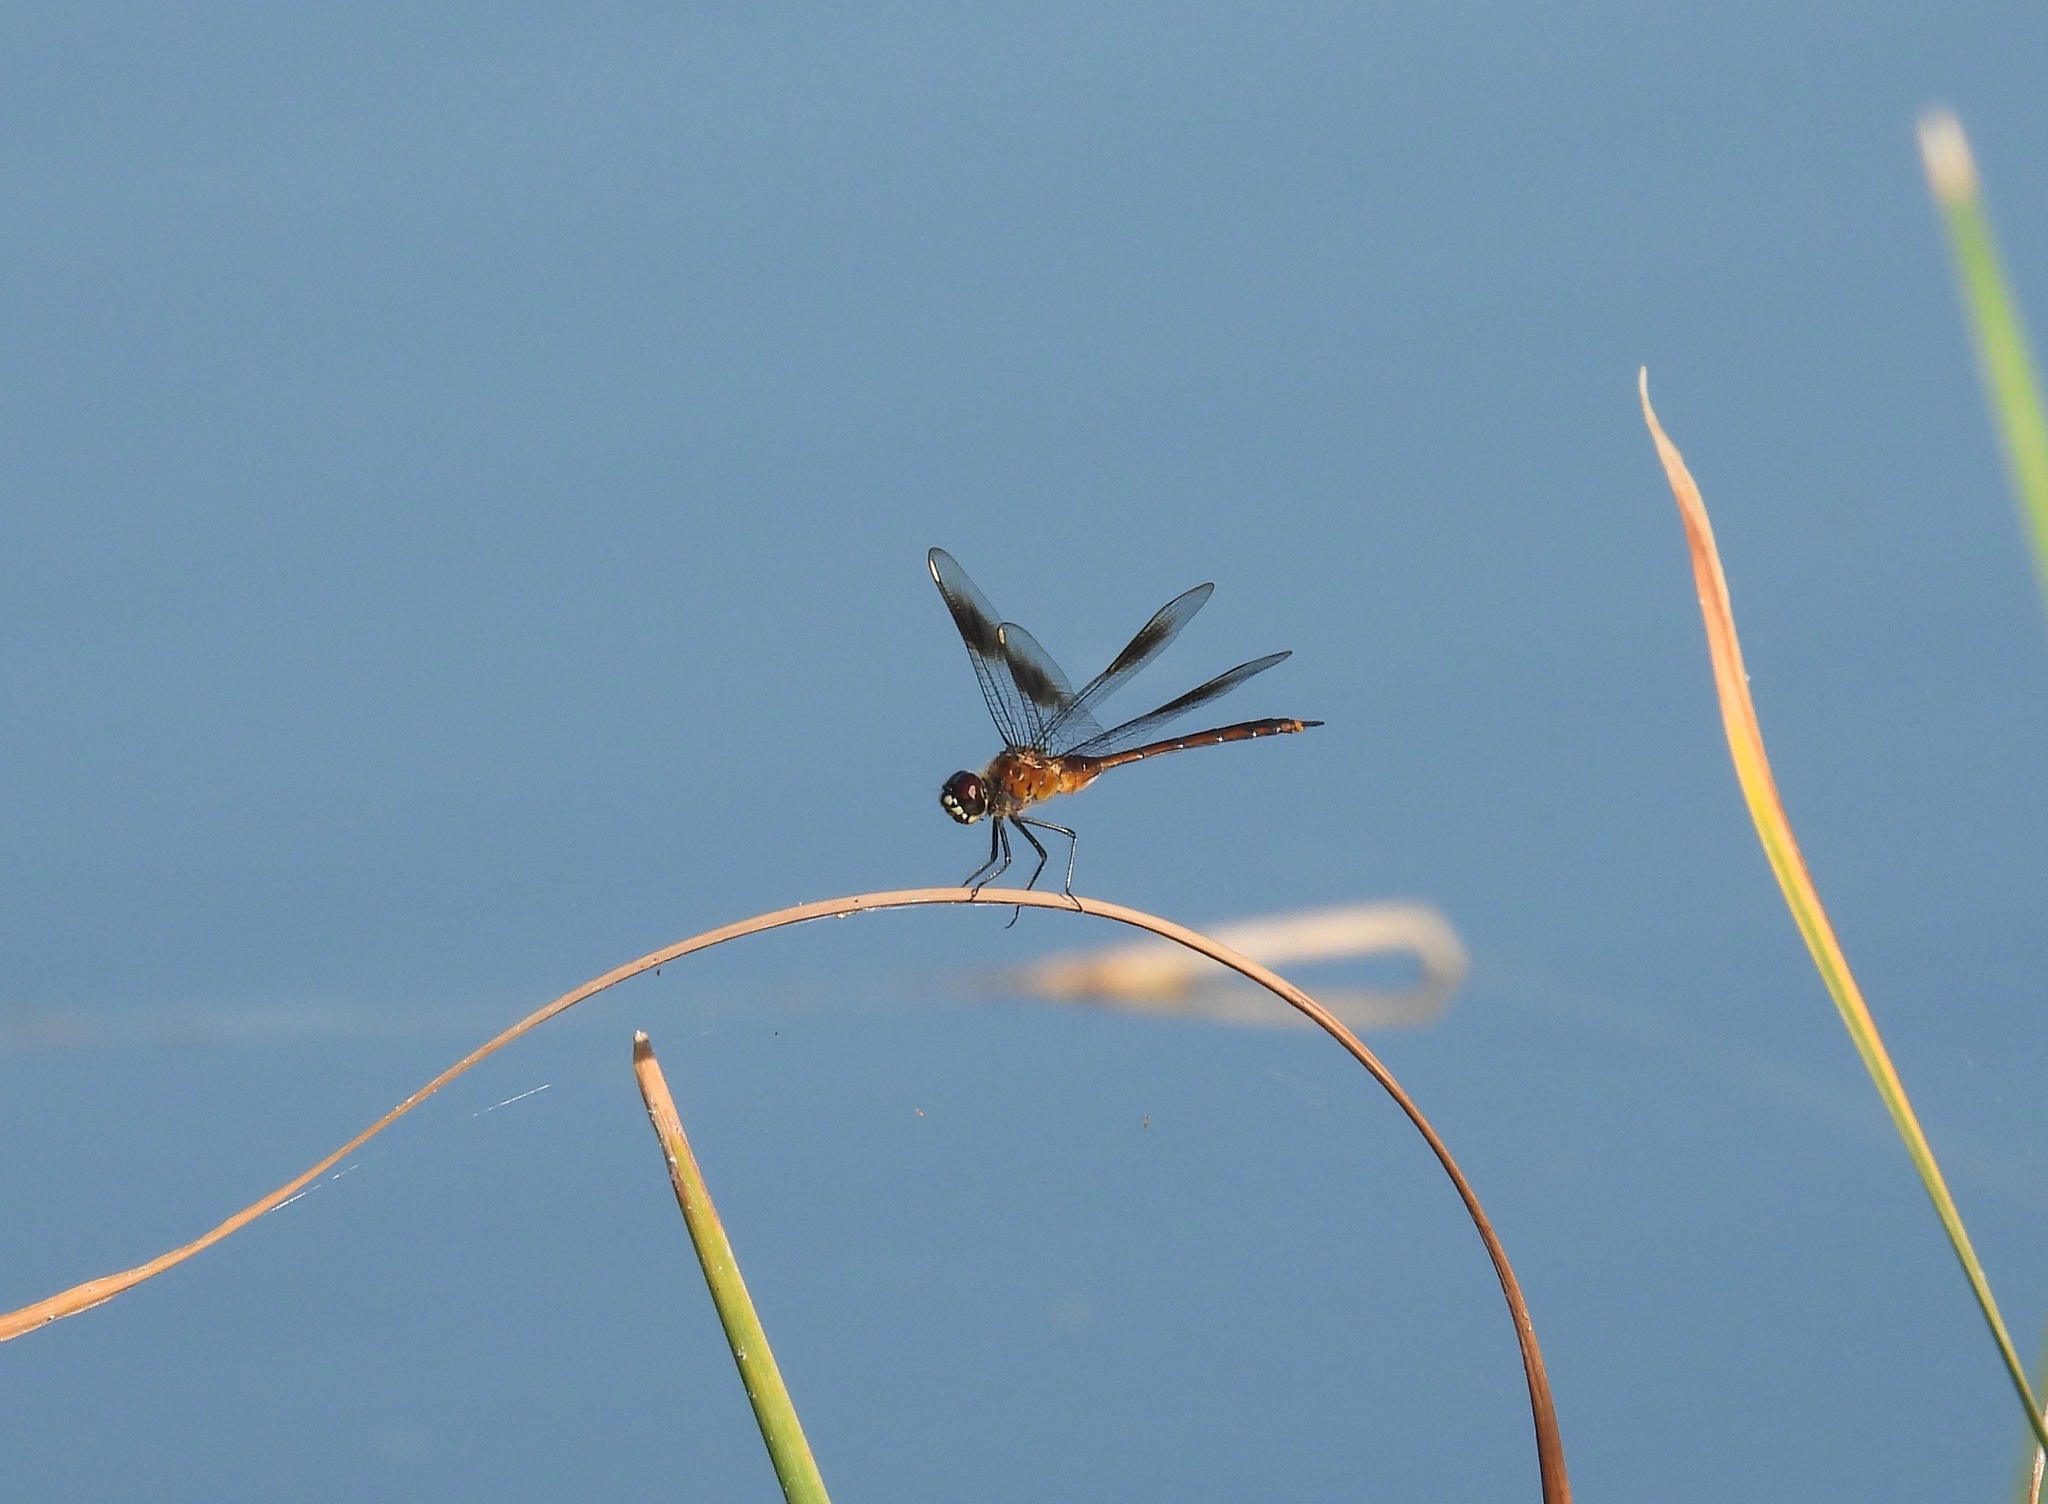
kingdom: Animalia
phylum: Arthropoda
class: Insecta
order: Odonata
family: Libellulidae
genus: Brachymesia
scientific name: Brachymesia gravida
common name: Four-spotted pennant
